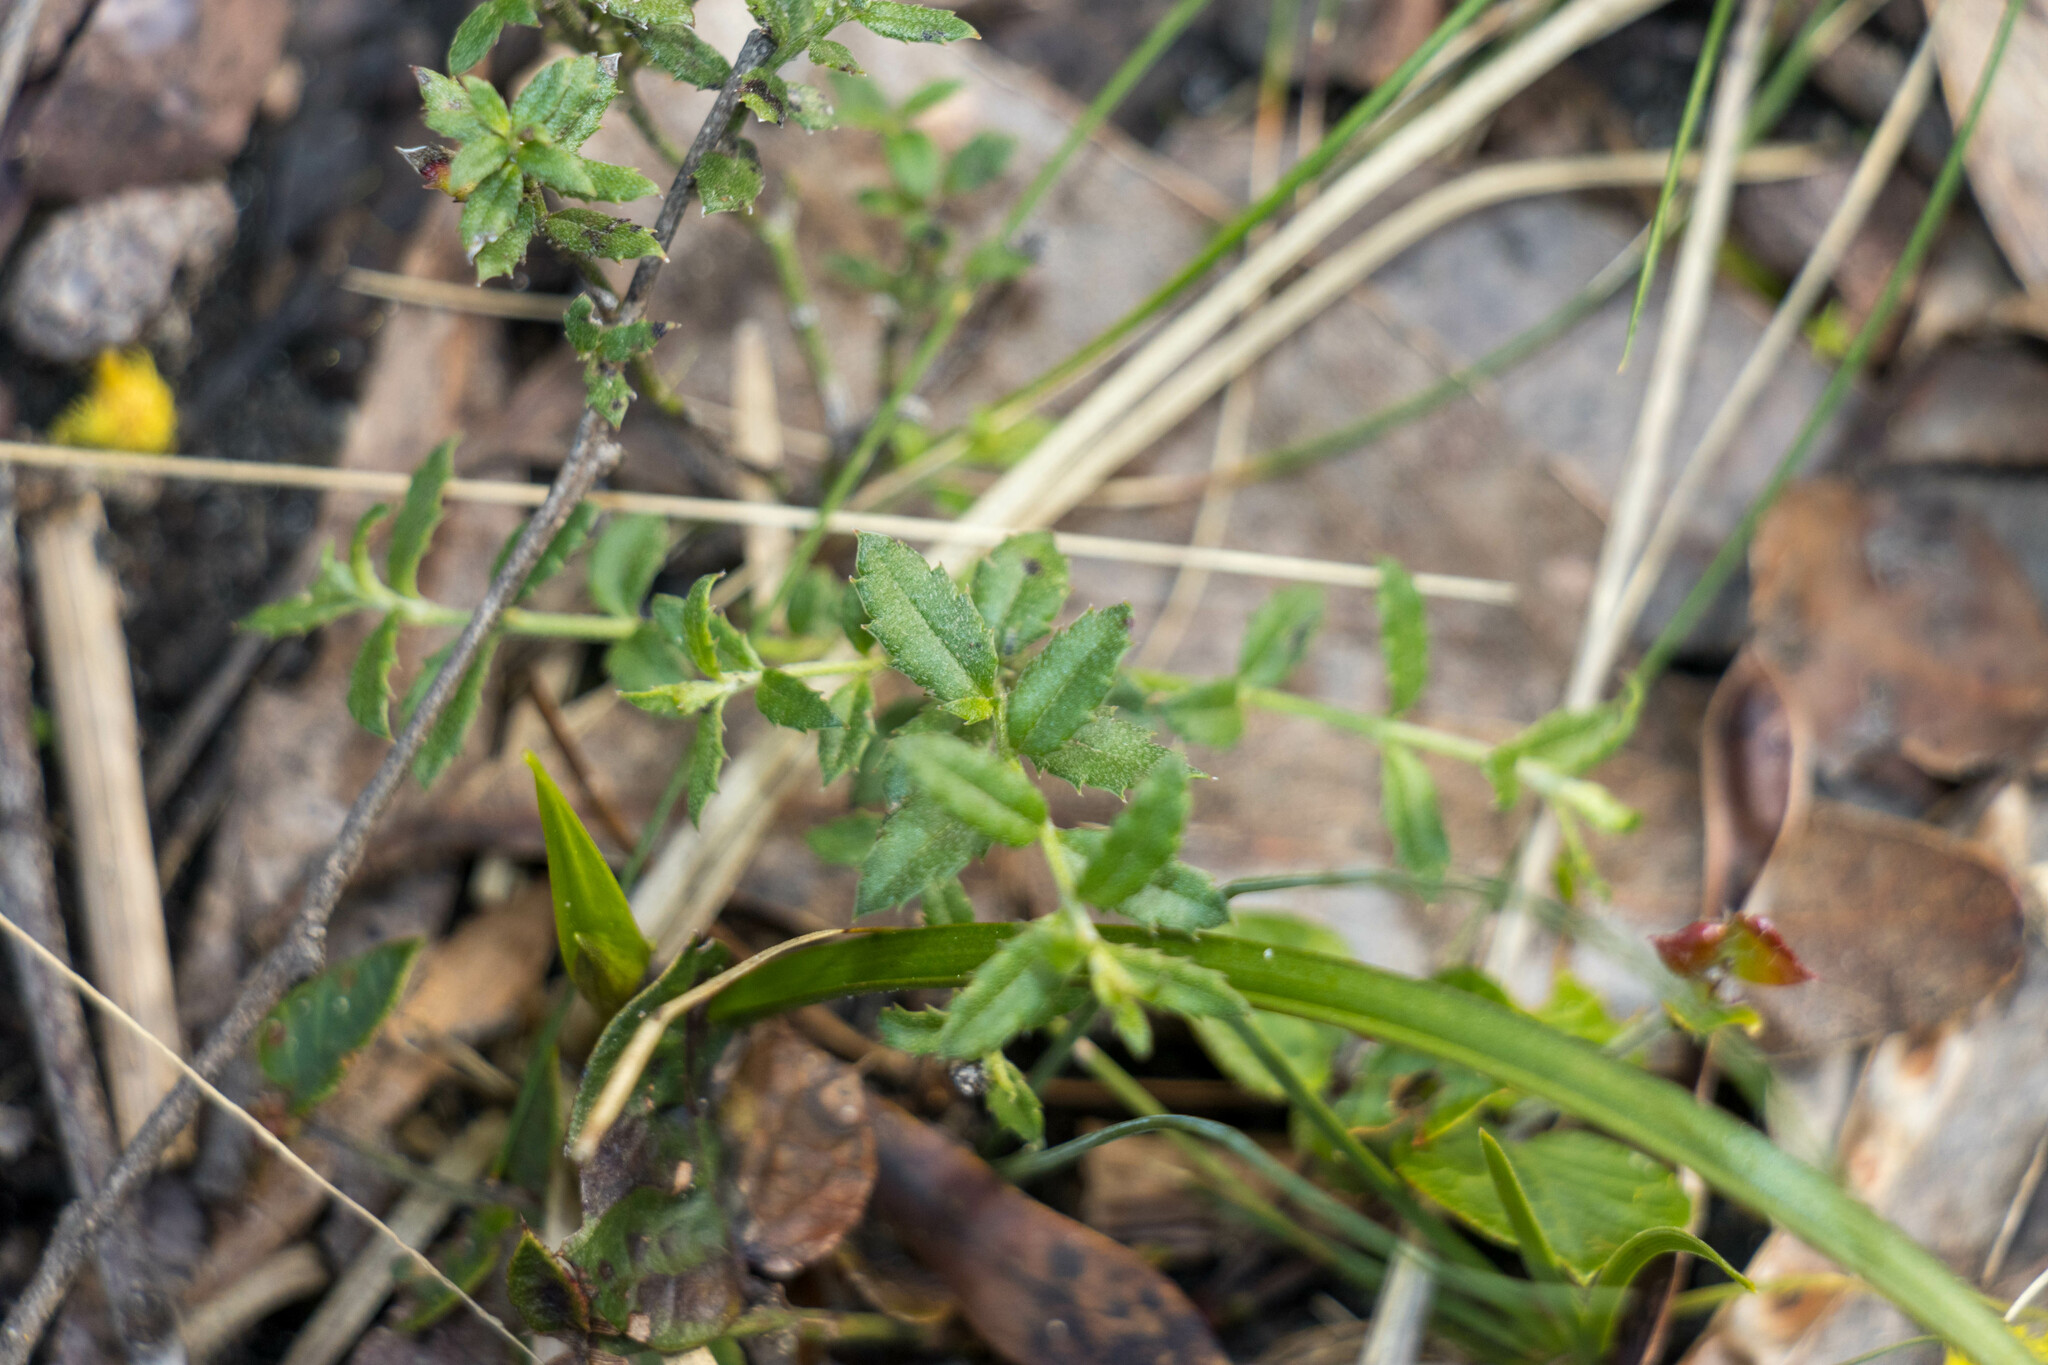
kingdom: Plantae
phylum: Tracheophyta
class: Magnoliopsida
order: Saxifragales
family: Haloragaceae
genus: Gonocarpus
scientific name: Gonocarpus tetragynus
